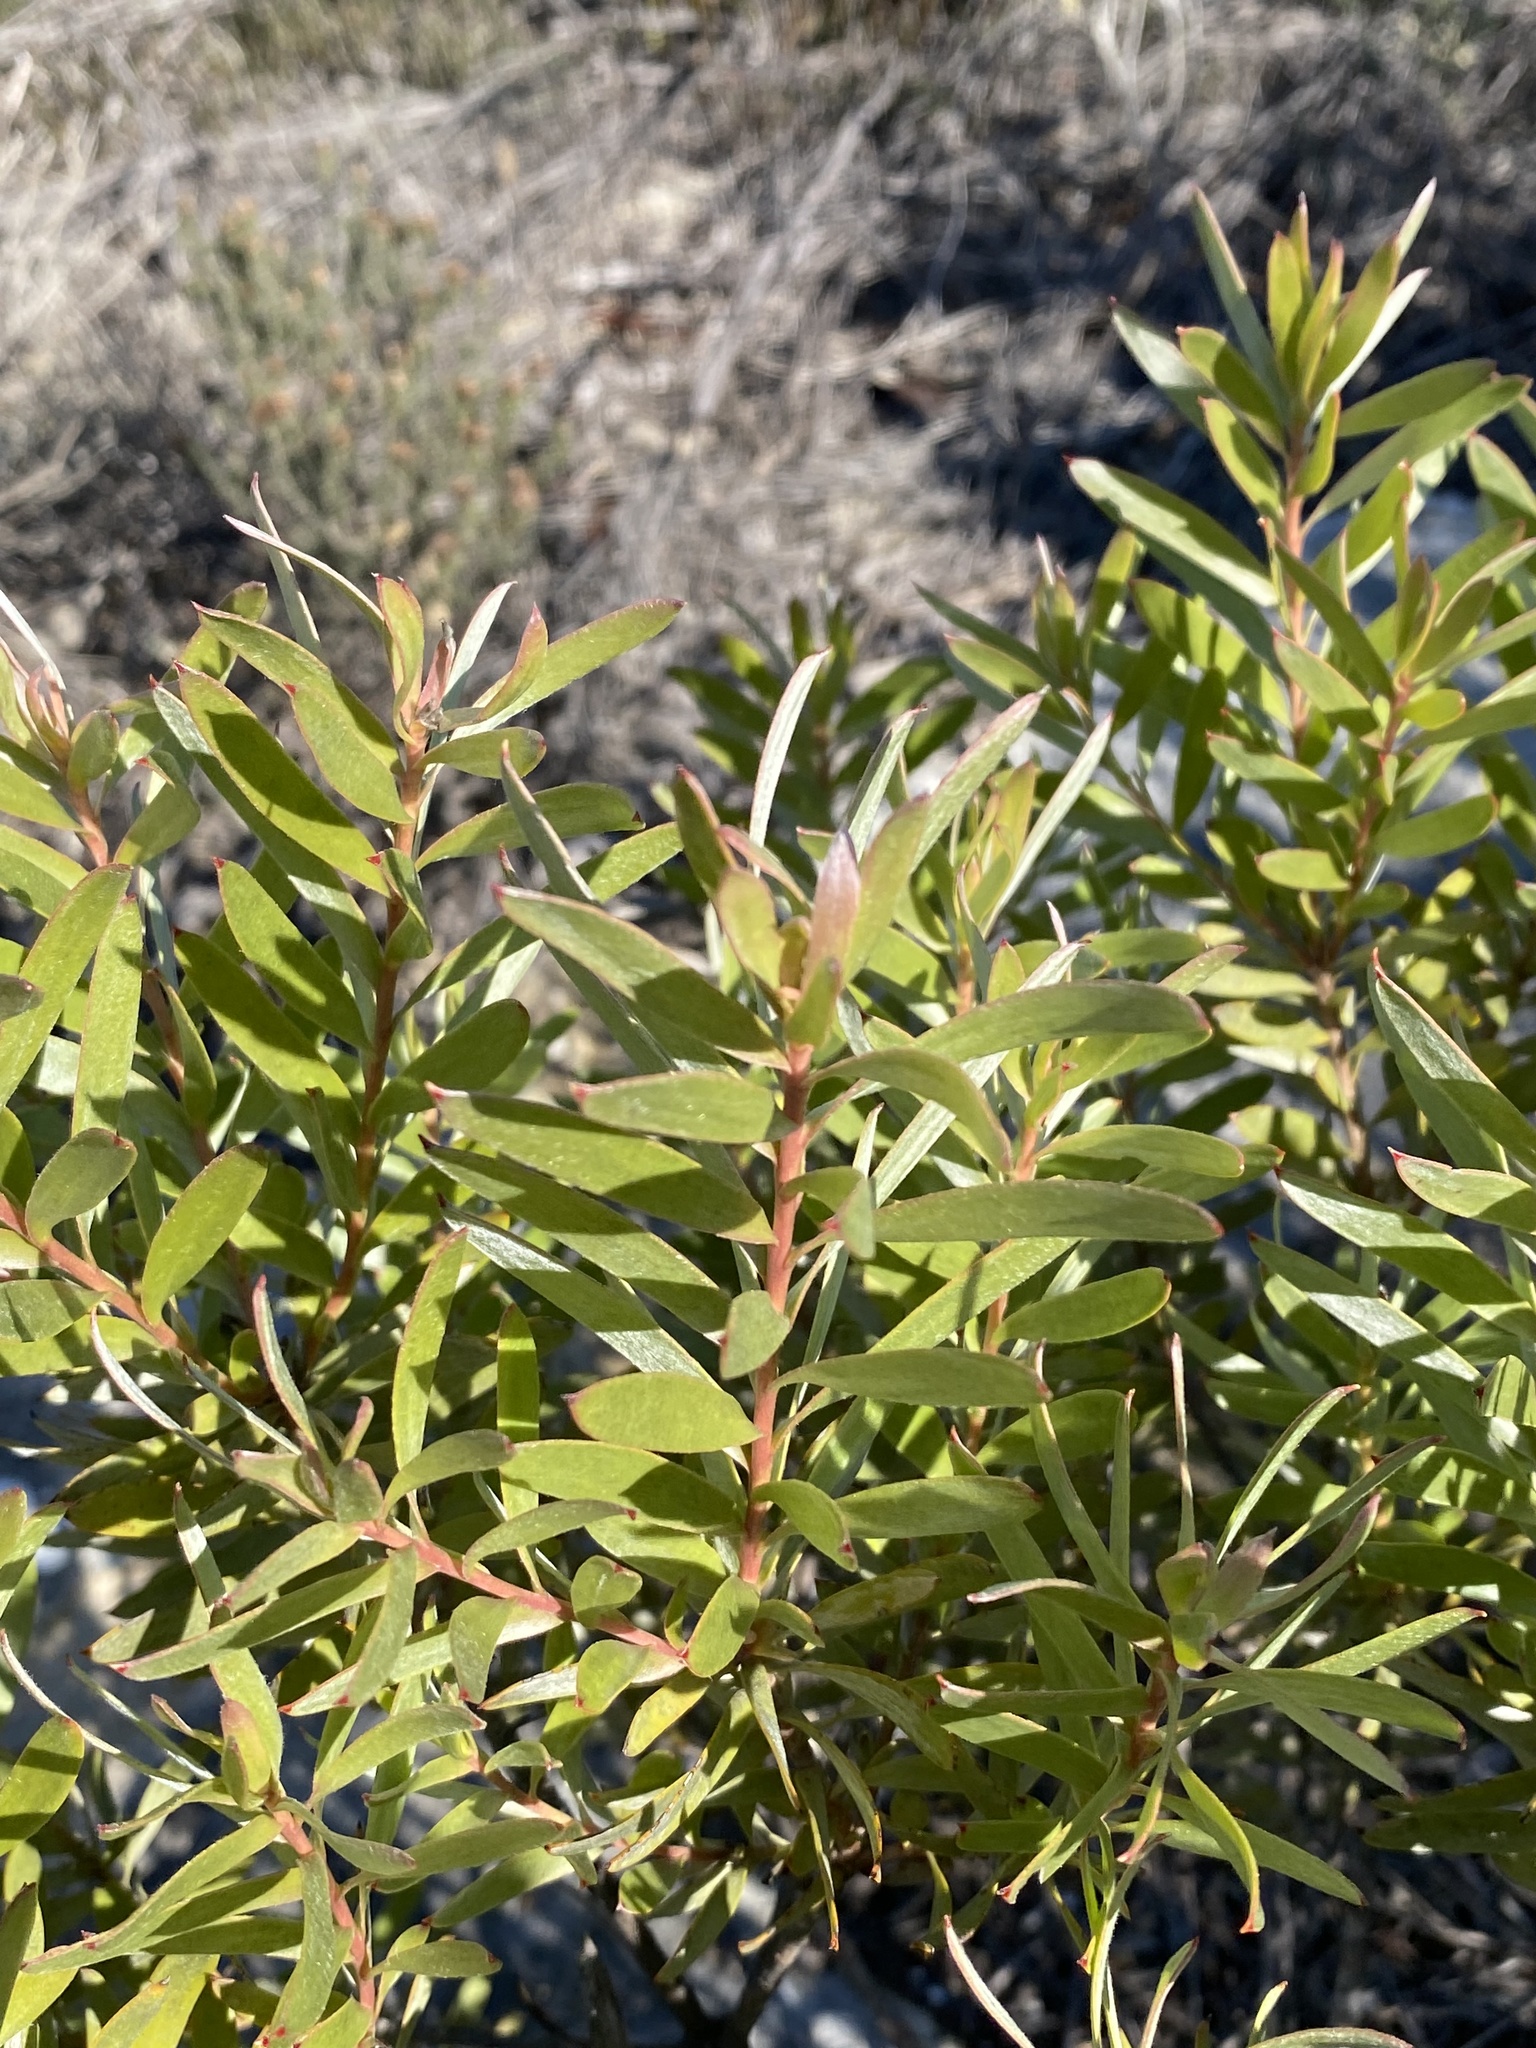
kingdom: Plantae
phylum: Tracheophyta
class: Magnoliopsida
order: Proteales
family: Proteaceae
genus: Leucadendron
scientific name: Leucadendron meridianum
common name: Limestone conebush
